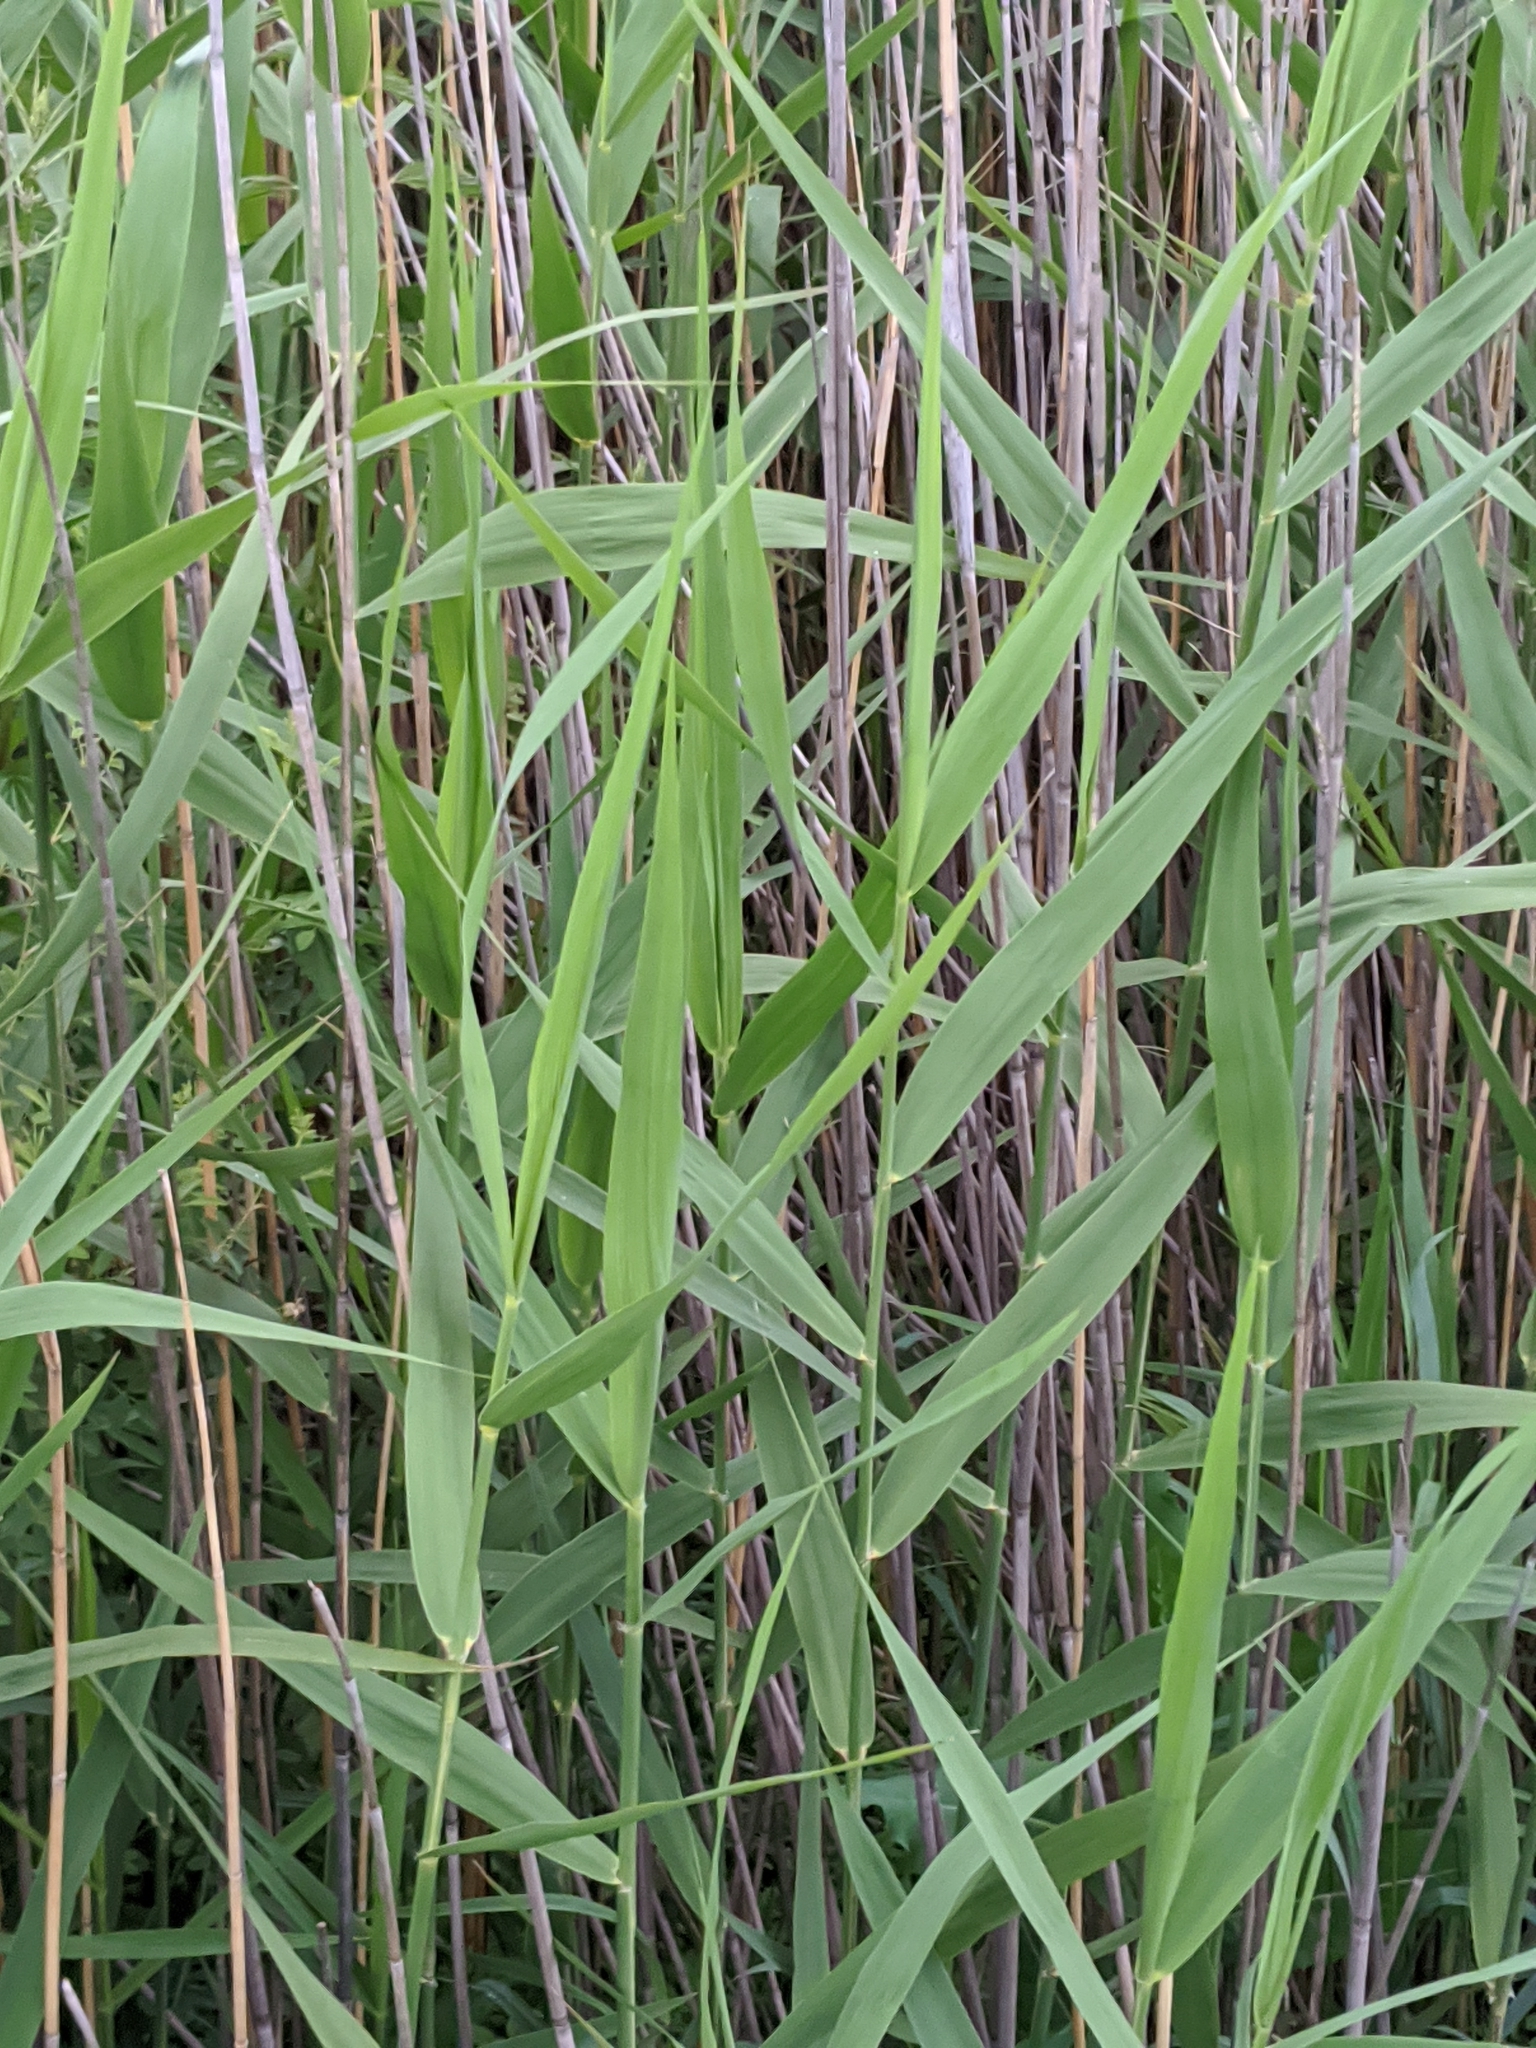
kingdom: Plantae
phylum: Tracheophyta
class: Liliopsida
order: Poales
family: Poaceae
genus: Phragmites
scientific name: Phragmites australis
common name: Common reed
